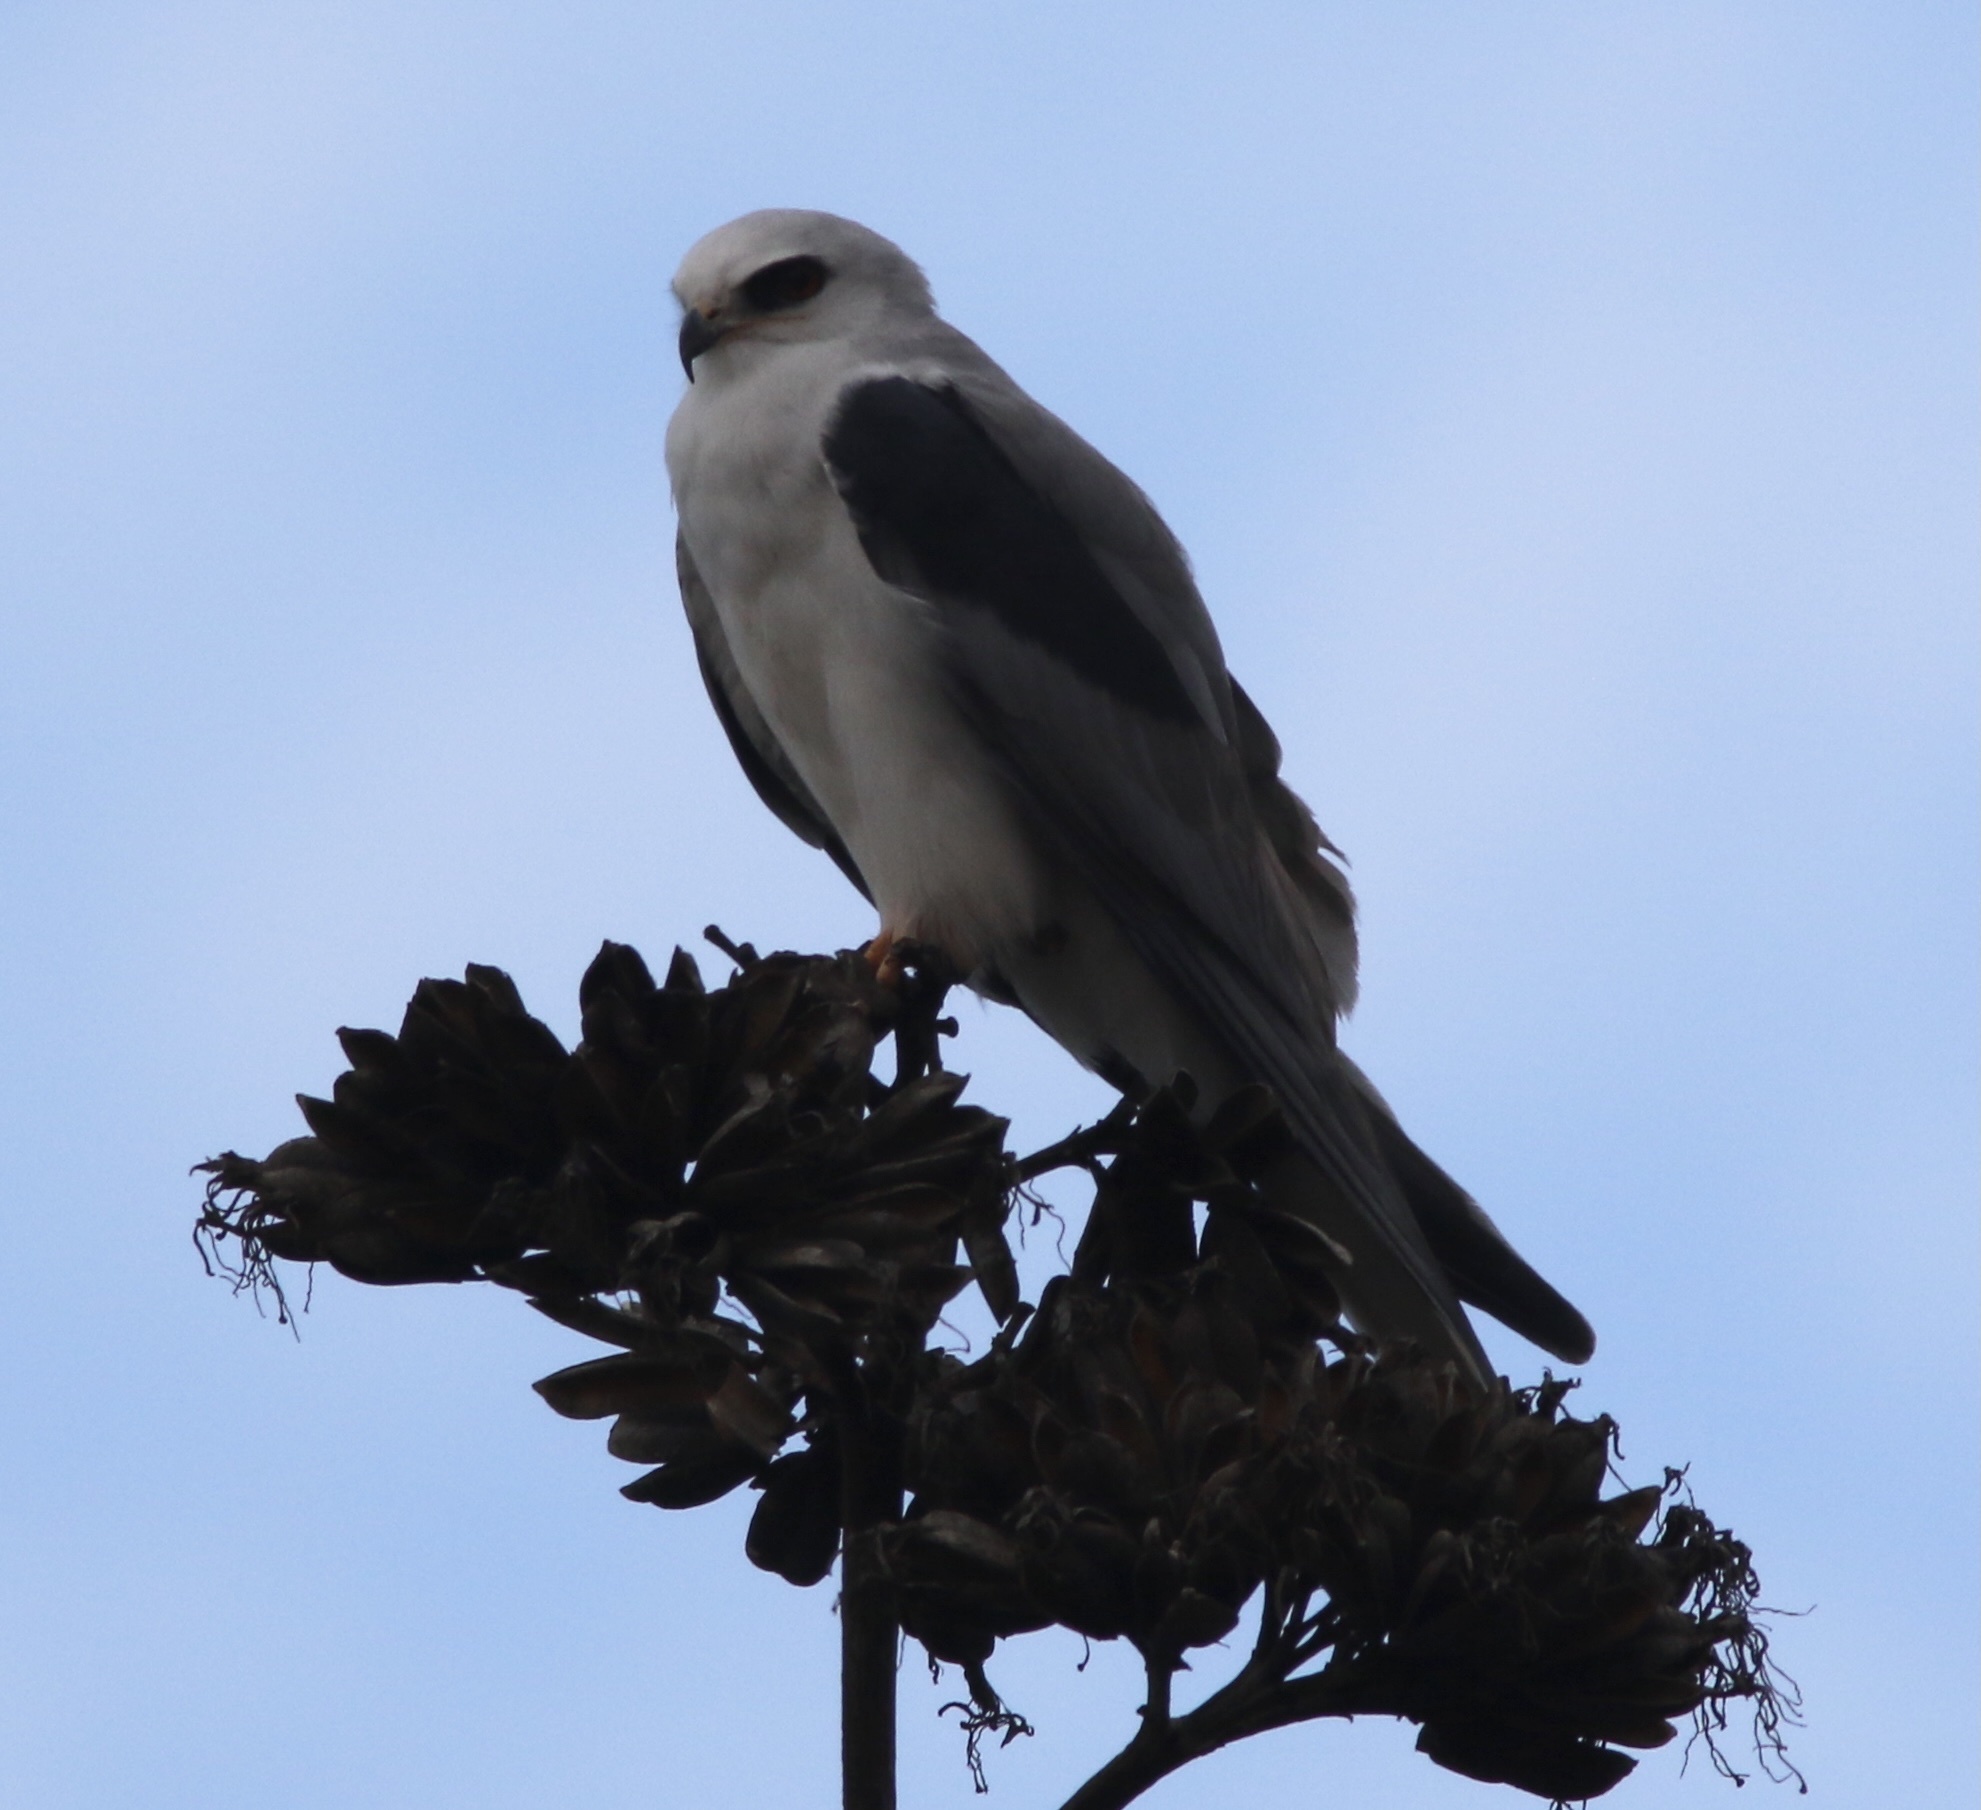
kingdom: Animalia
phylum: Chordata
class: Aves
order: Accipitriformes
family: Accipitridae
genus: Elanus
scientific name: Elanus leucurus
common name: White-tailed kite
